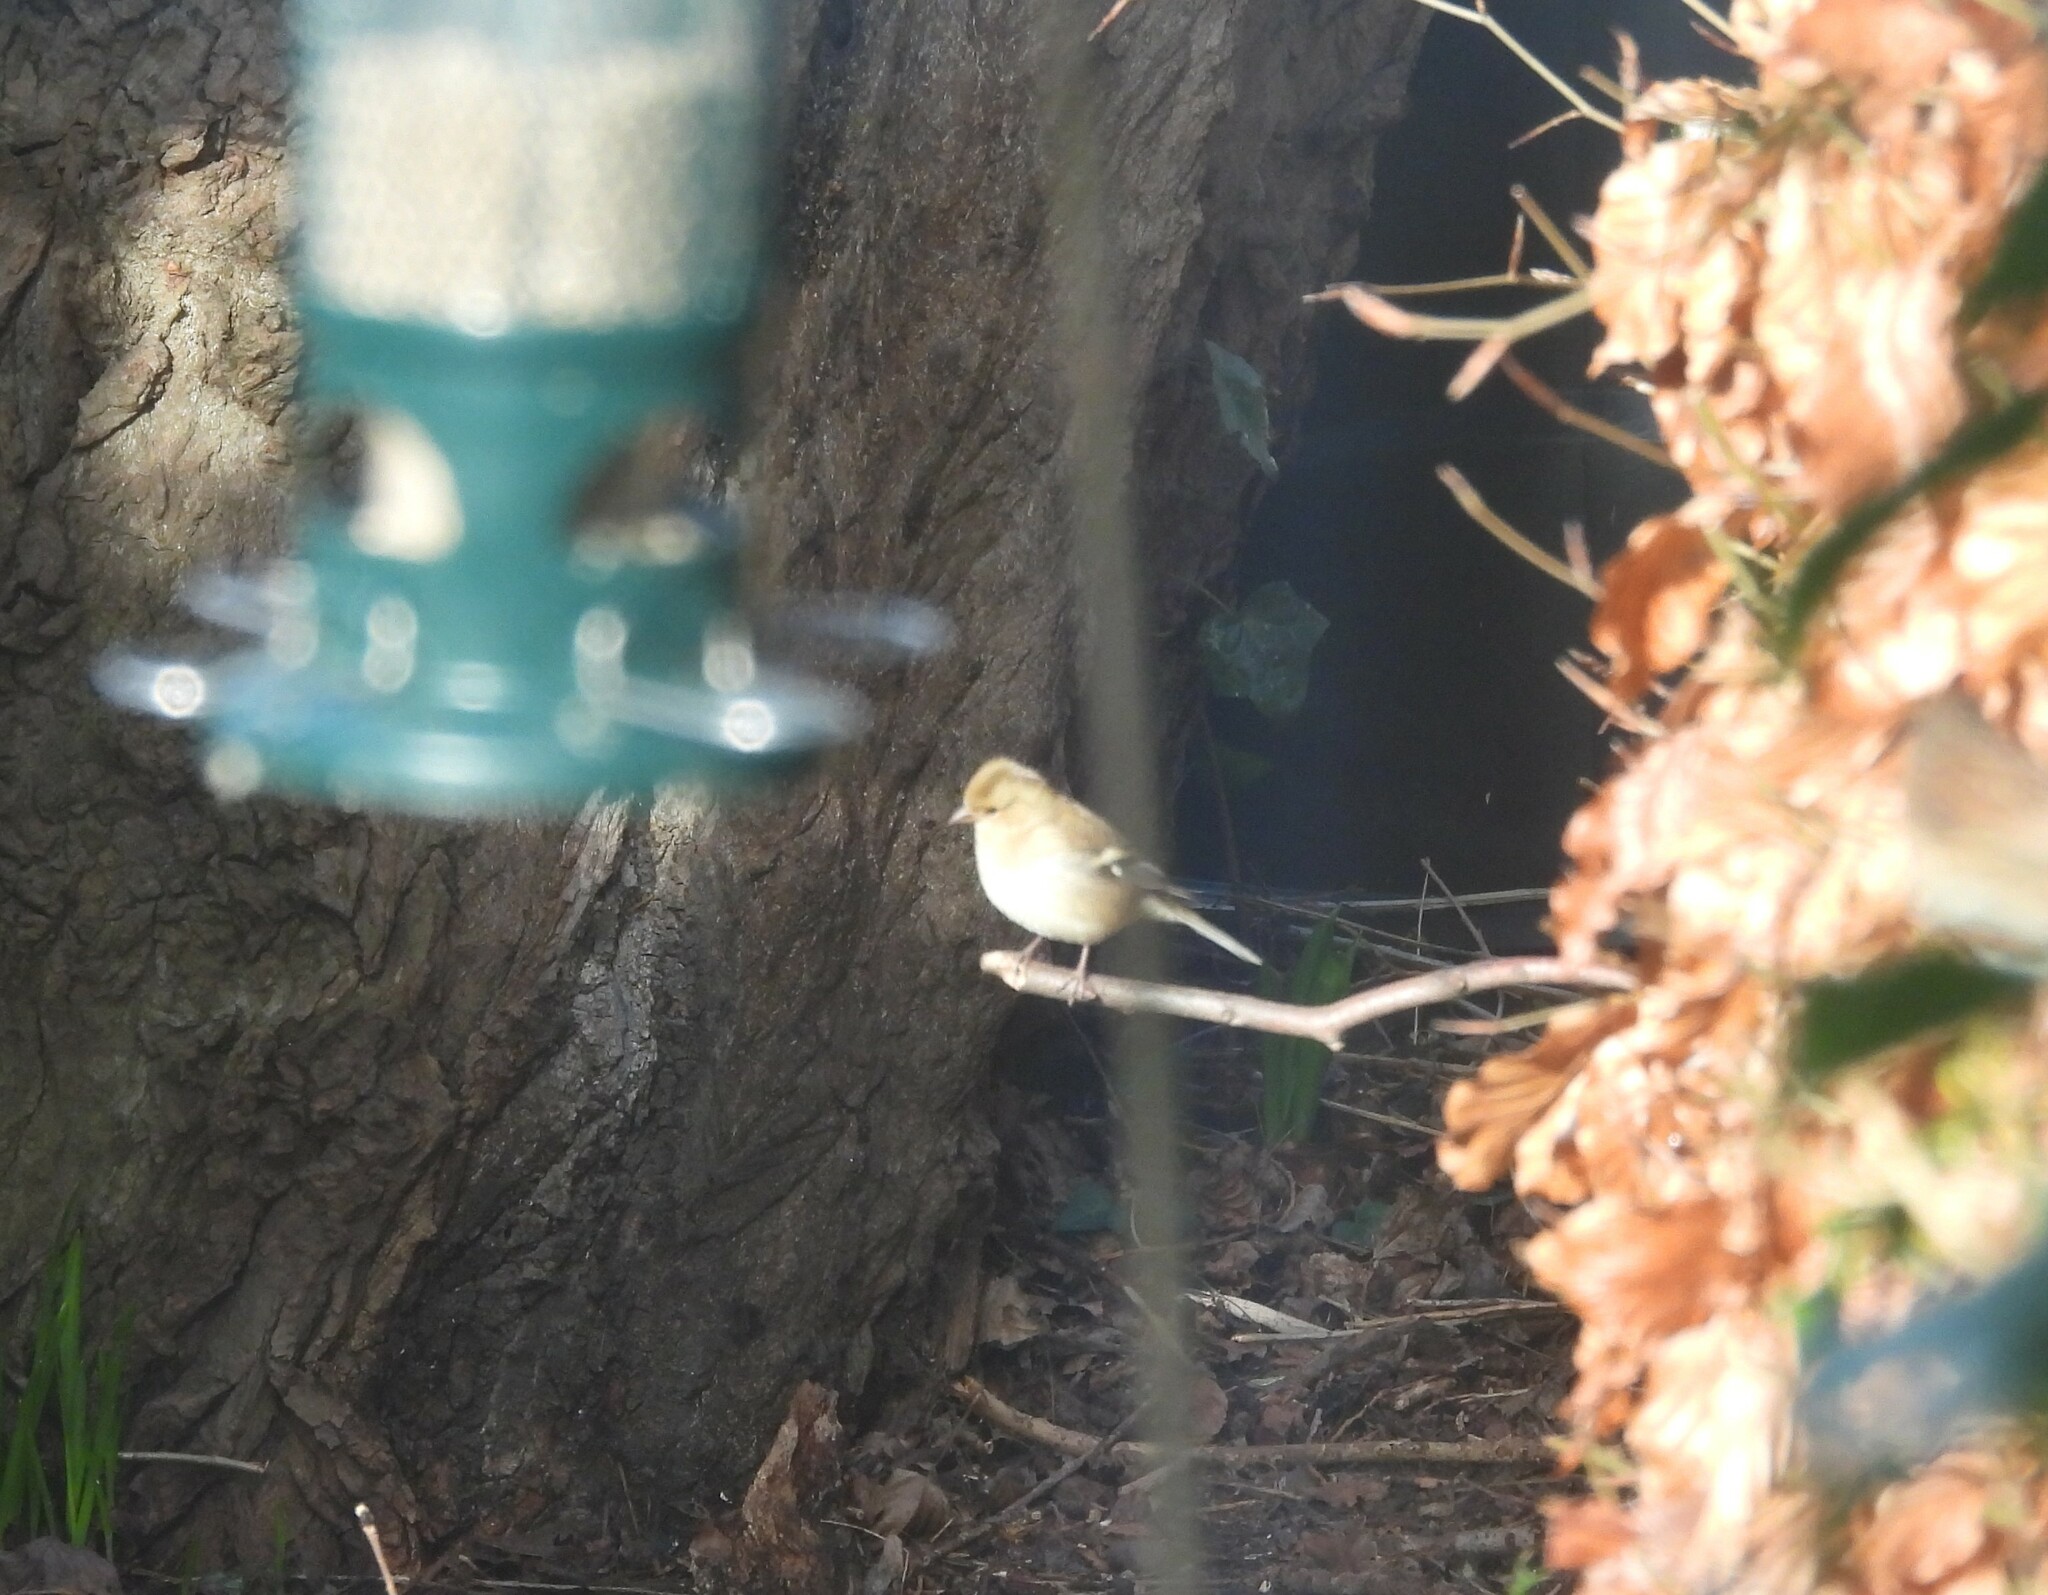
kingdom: Animalia
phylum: Chordata
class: Aves
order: Passeriformes
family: Fringillidae
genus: Fringilla
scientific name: Fringilla coelebs
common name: Common chaffinch
